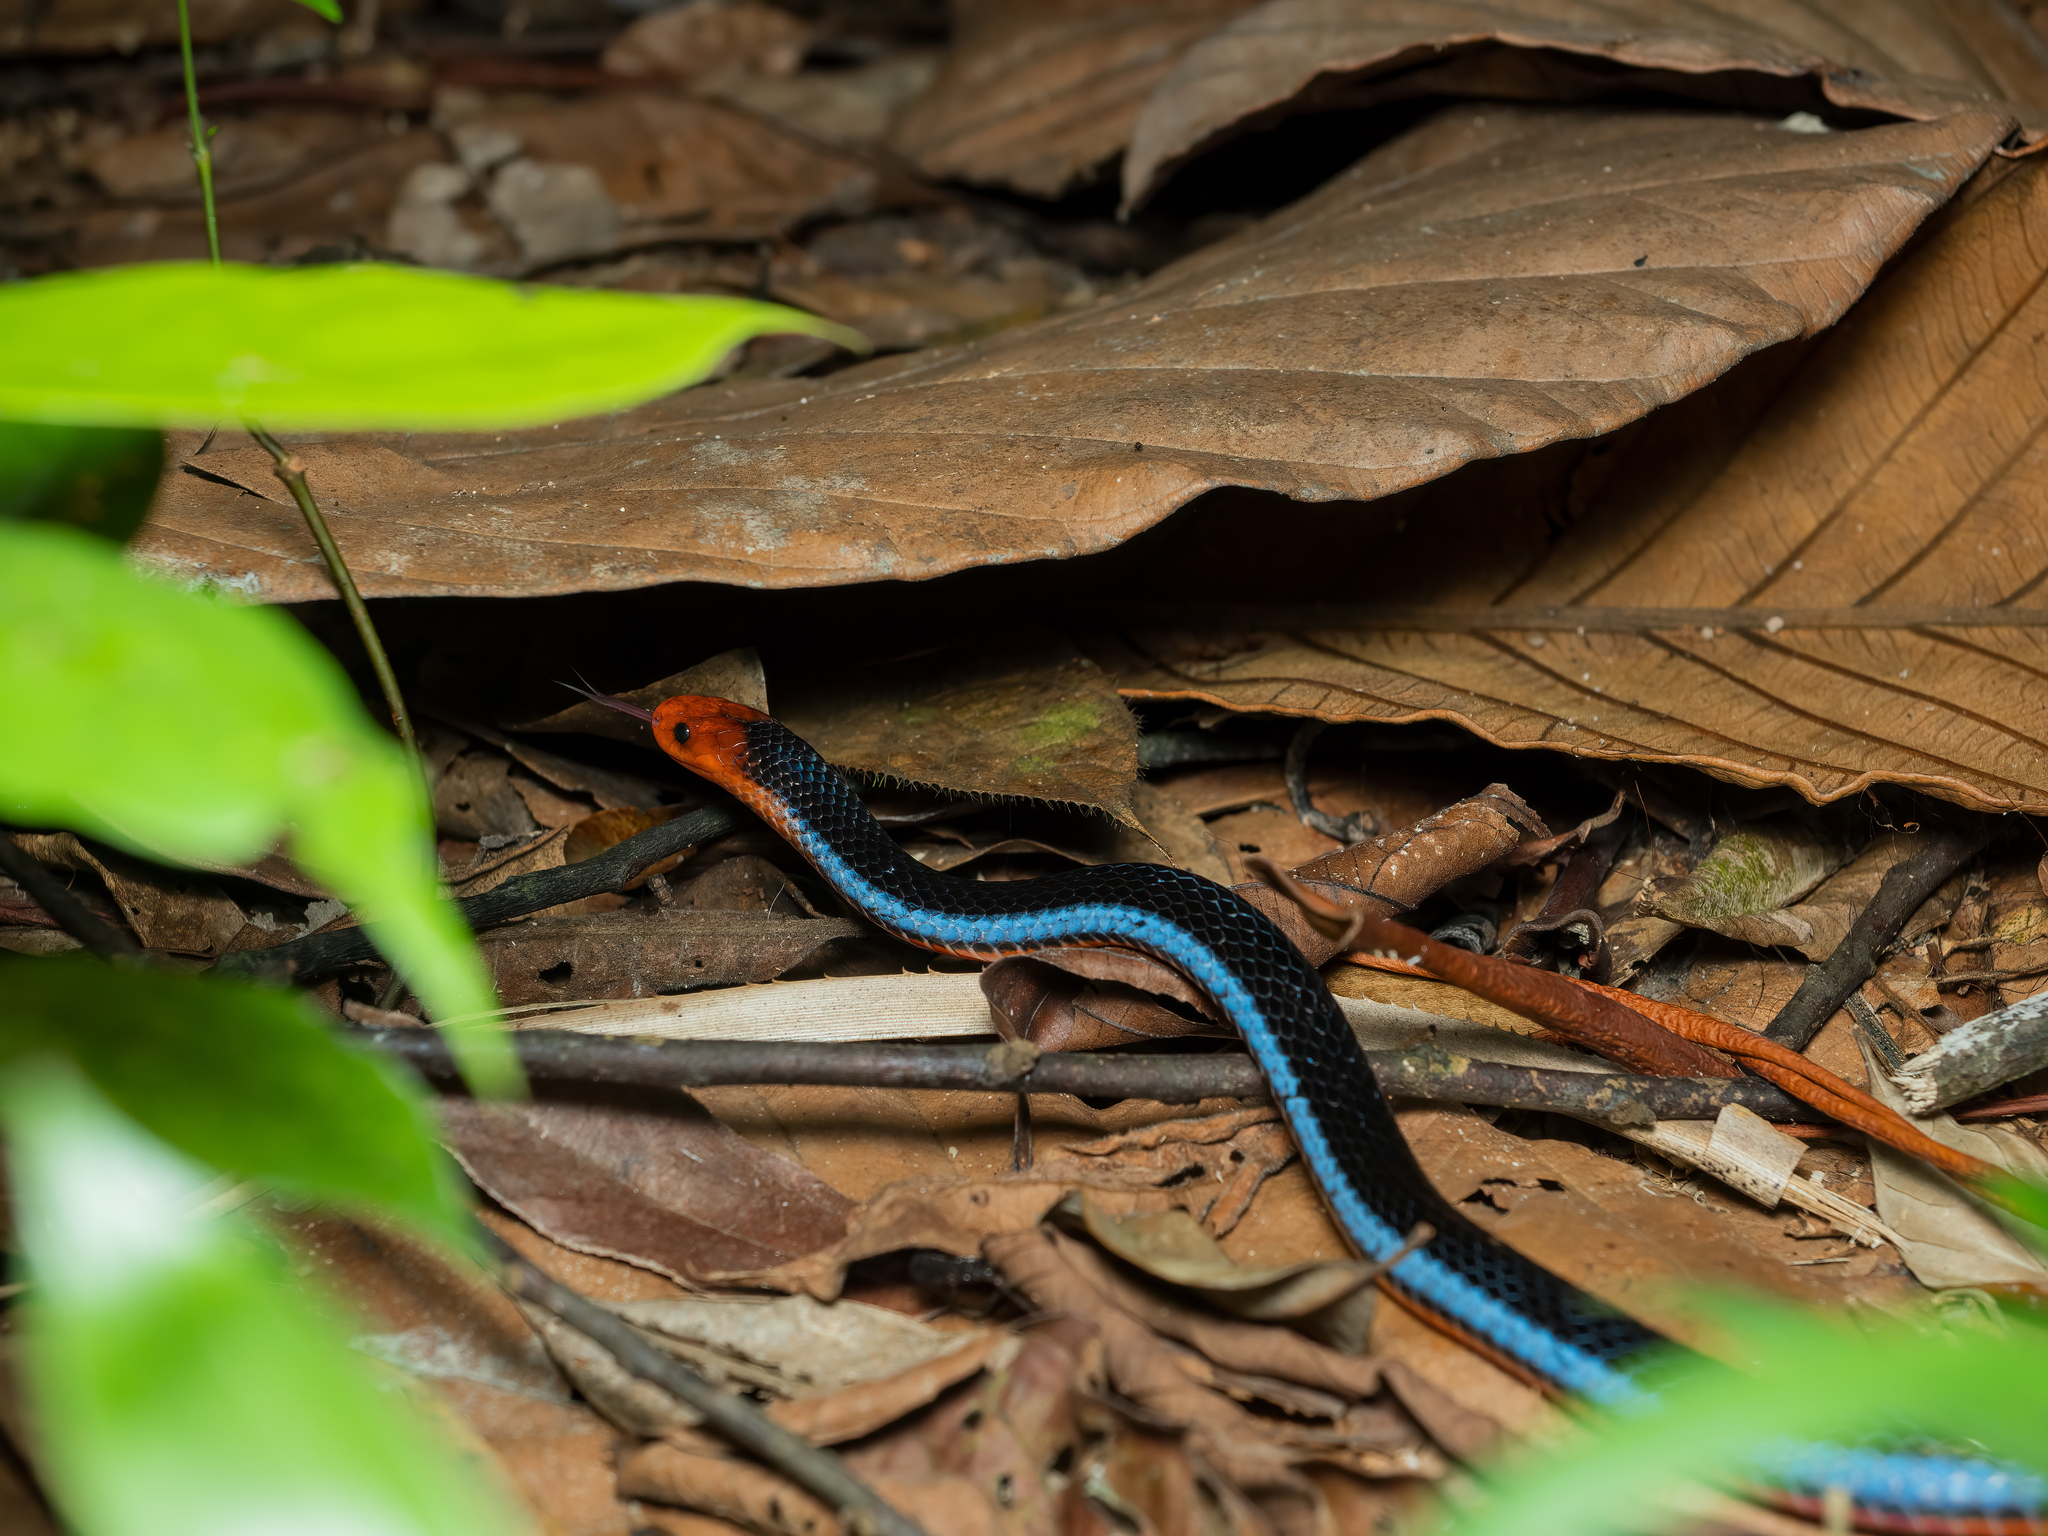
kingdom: Animalia
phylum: Chordata
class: Squamata
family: Elapidae
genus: Calliophis
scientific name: Calliophis bivirgatus
